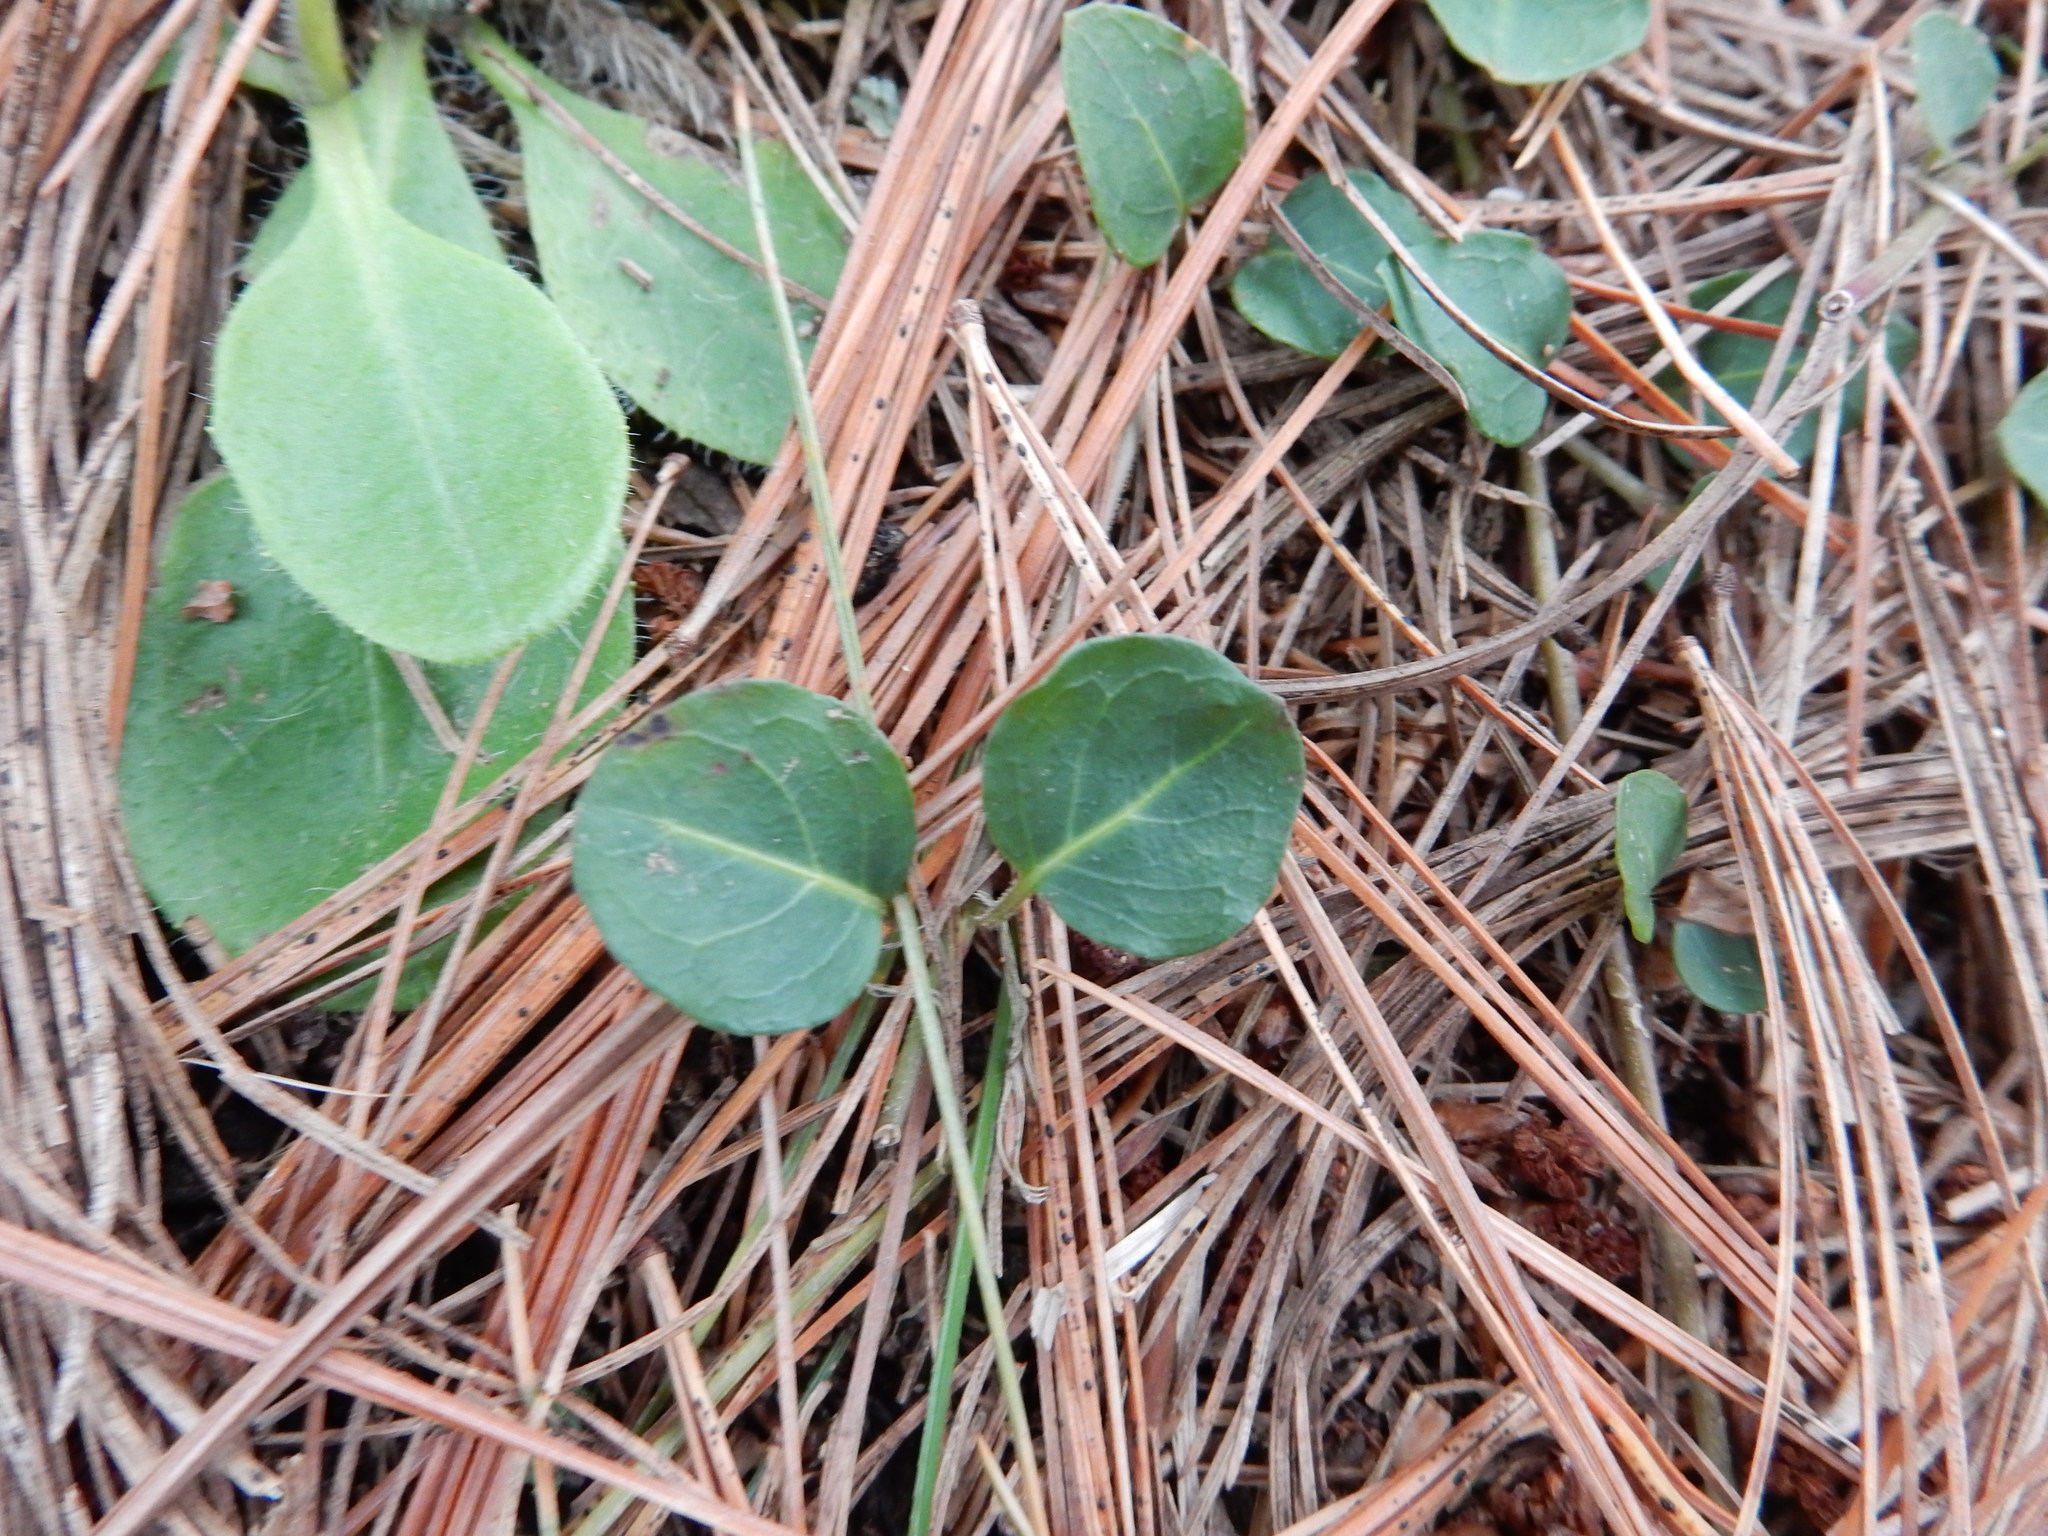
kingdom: Plantae
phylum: Tracheophyta
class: Magnoliopsida
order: Gentianales
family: Rubiaceae
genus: Mitchella
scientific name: Mitchella repens
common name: Partridge-berry
